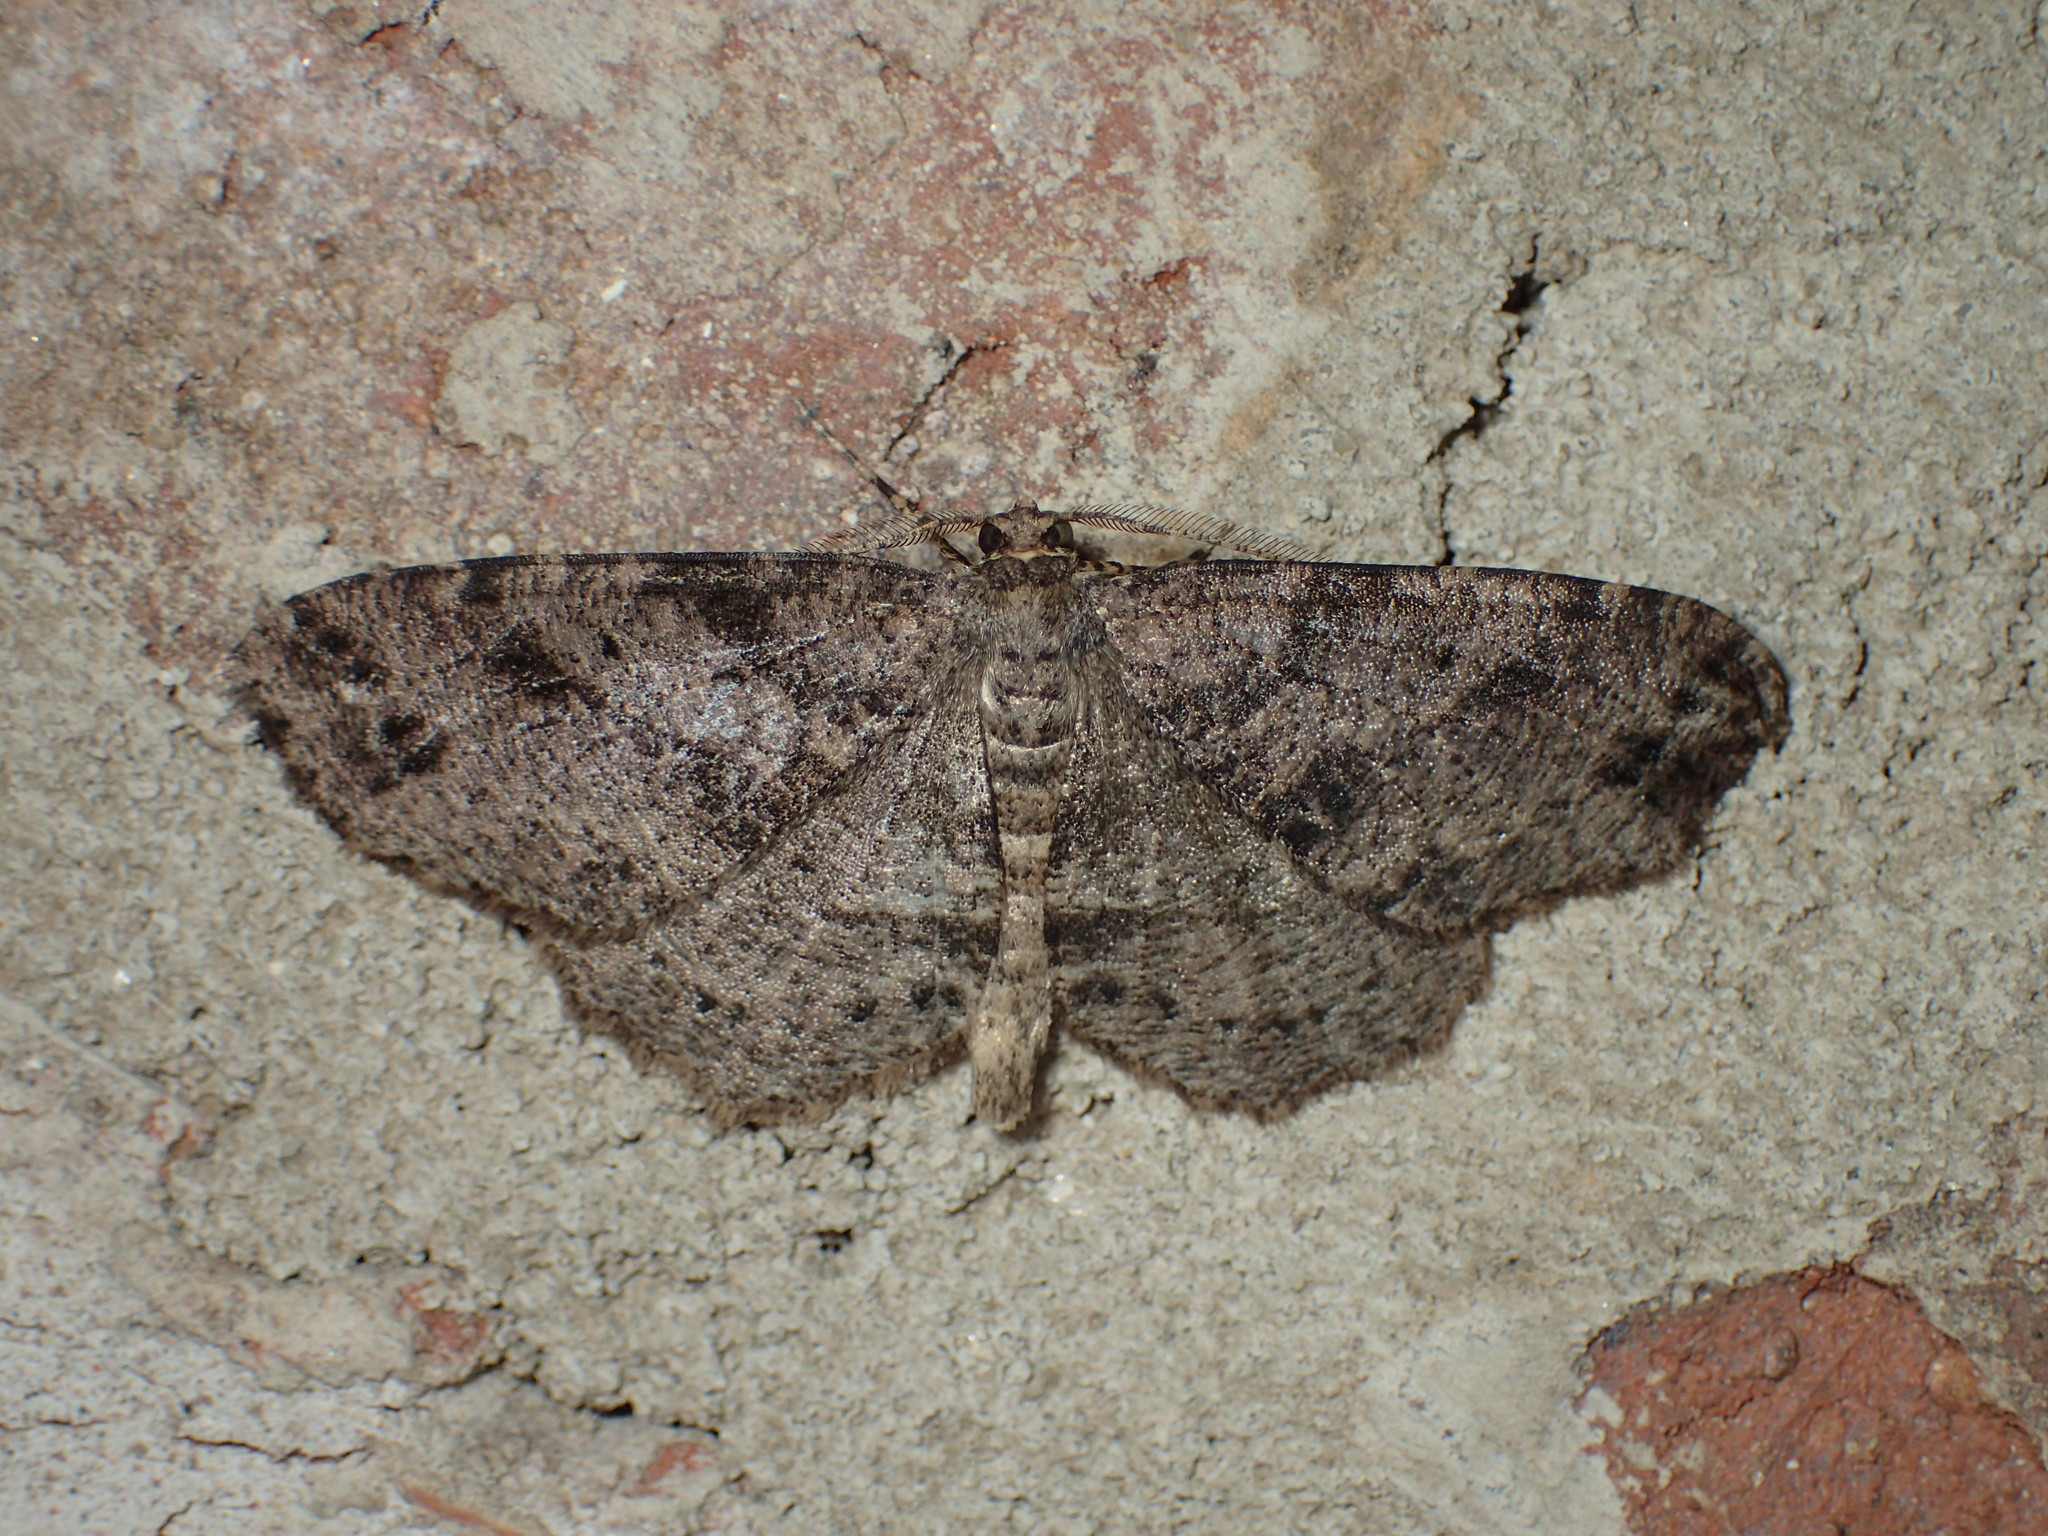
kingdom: Animalia
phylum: Arthropoda
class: Insecta
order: Lepidoptera
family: Geometridae
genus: Melanolophia
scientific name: Melanolophia canadaria
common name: Canadian melanolophia
